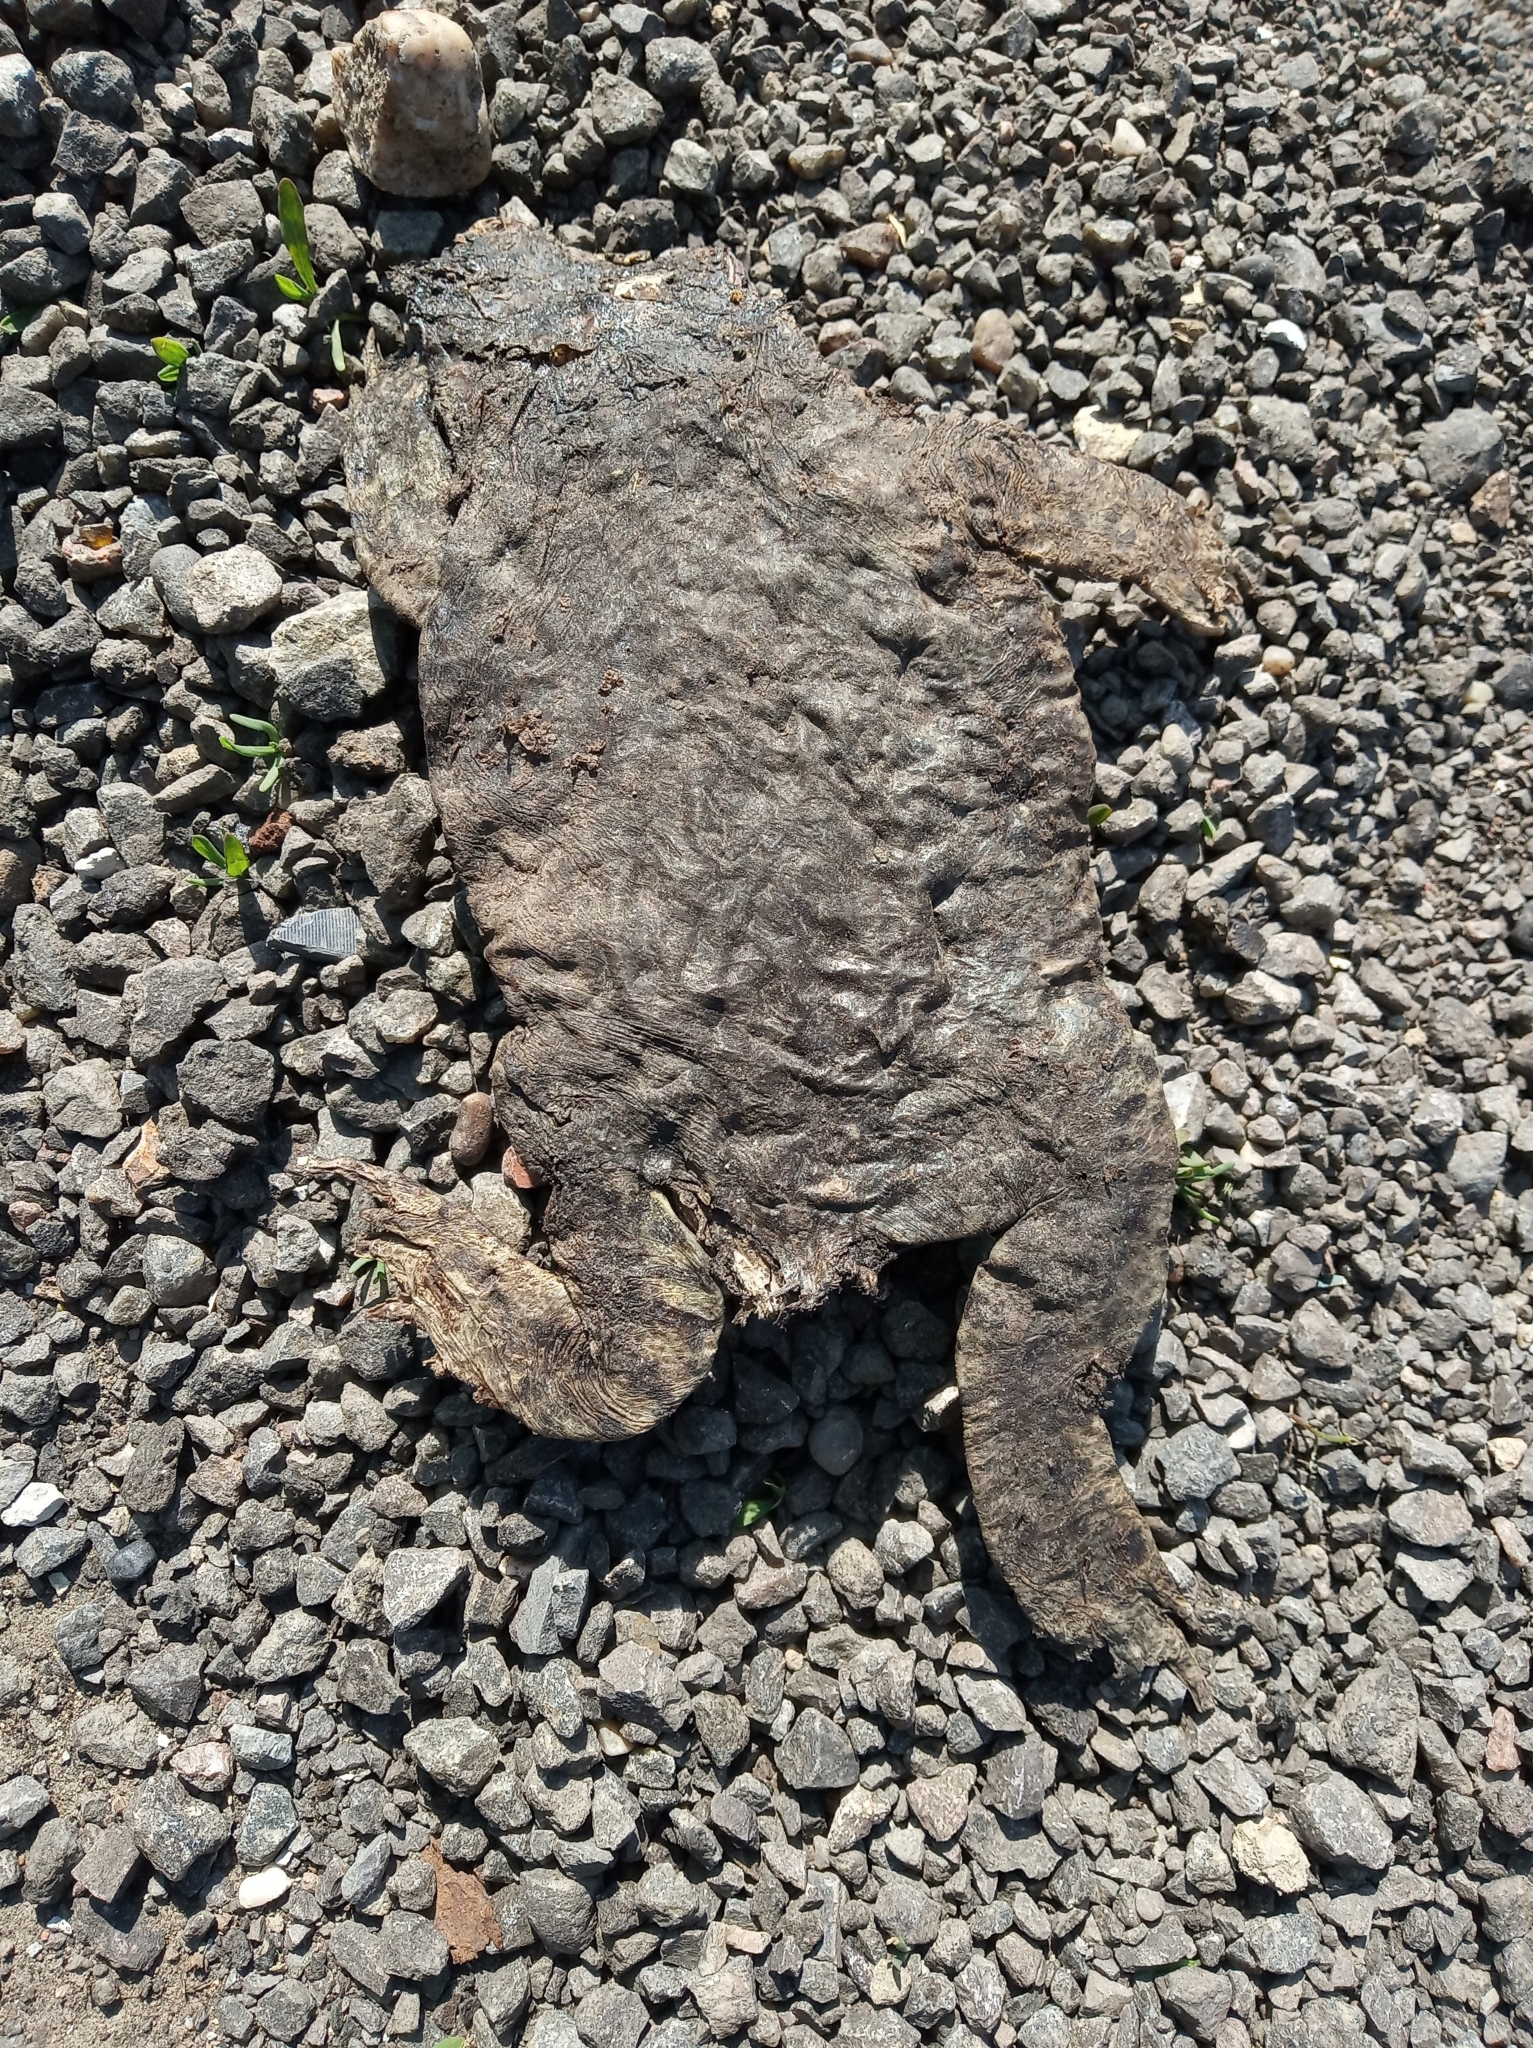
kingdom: Animalia
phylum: Chordata
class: Amphibia
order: Anura
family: Bufonidae
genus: Bufo
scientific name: Bufo bufo
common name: Common toad
